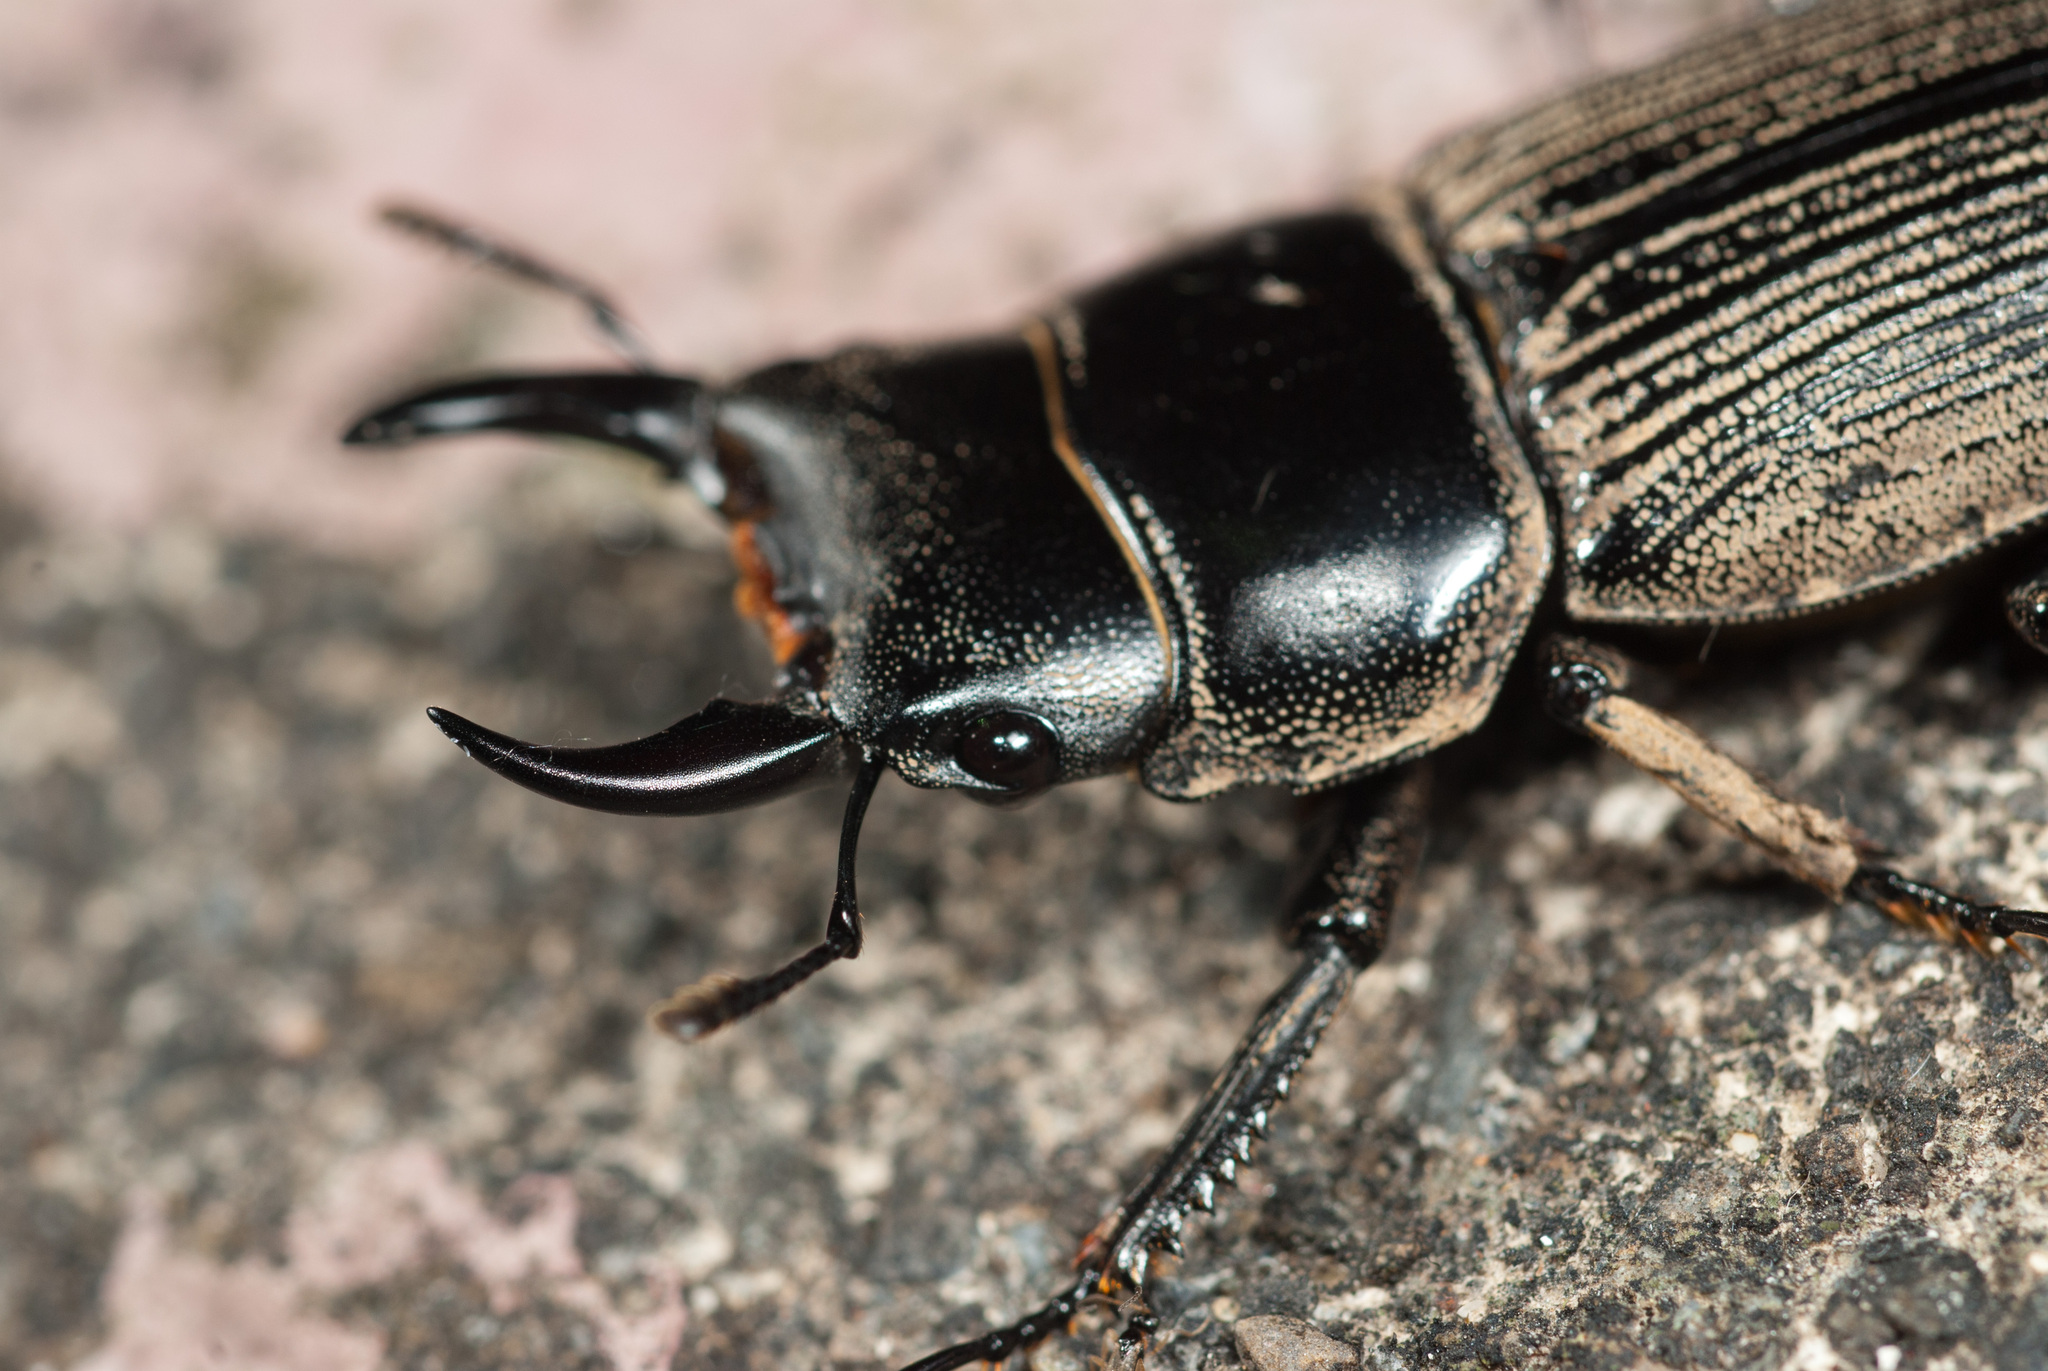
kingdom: Animalia
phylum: Arthropoda
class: Insecta
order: Coleoptera
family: Lucanidae
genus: Dorcus
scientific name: Dorcus miwai
